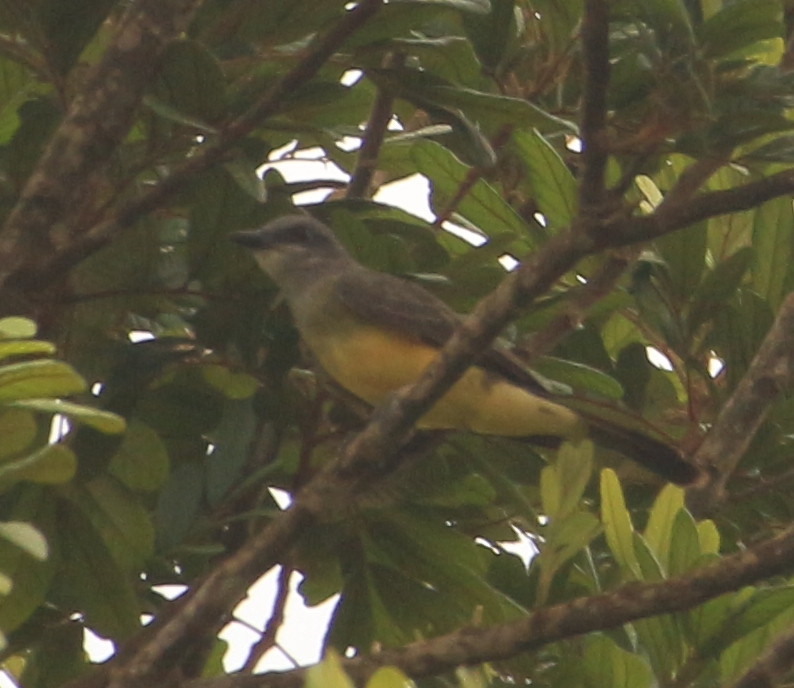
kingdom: Animalia
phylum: Chordata
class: Aves
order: Passeriformes
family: Tyrannidae
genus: Tyrannus
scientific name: Tyrannus melancholicus
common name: Tropical kingbird
